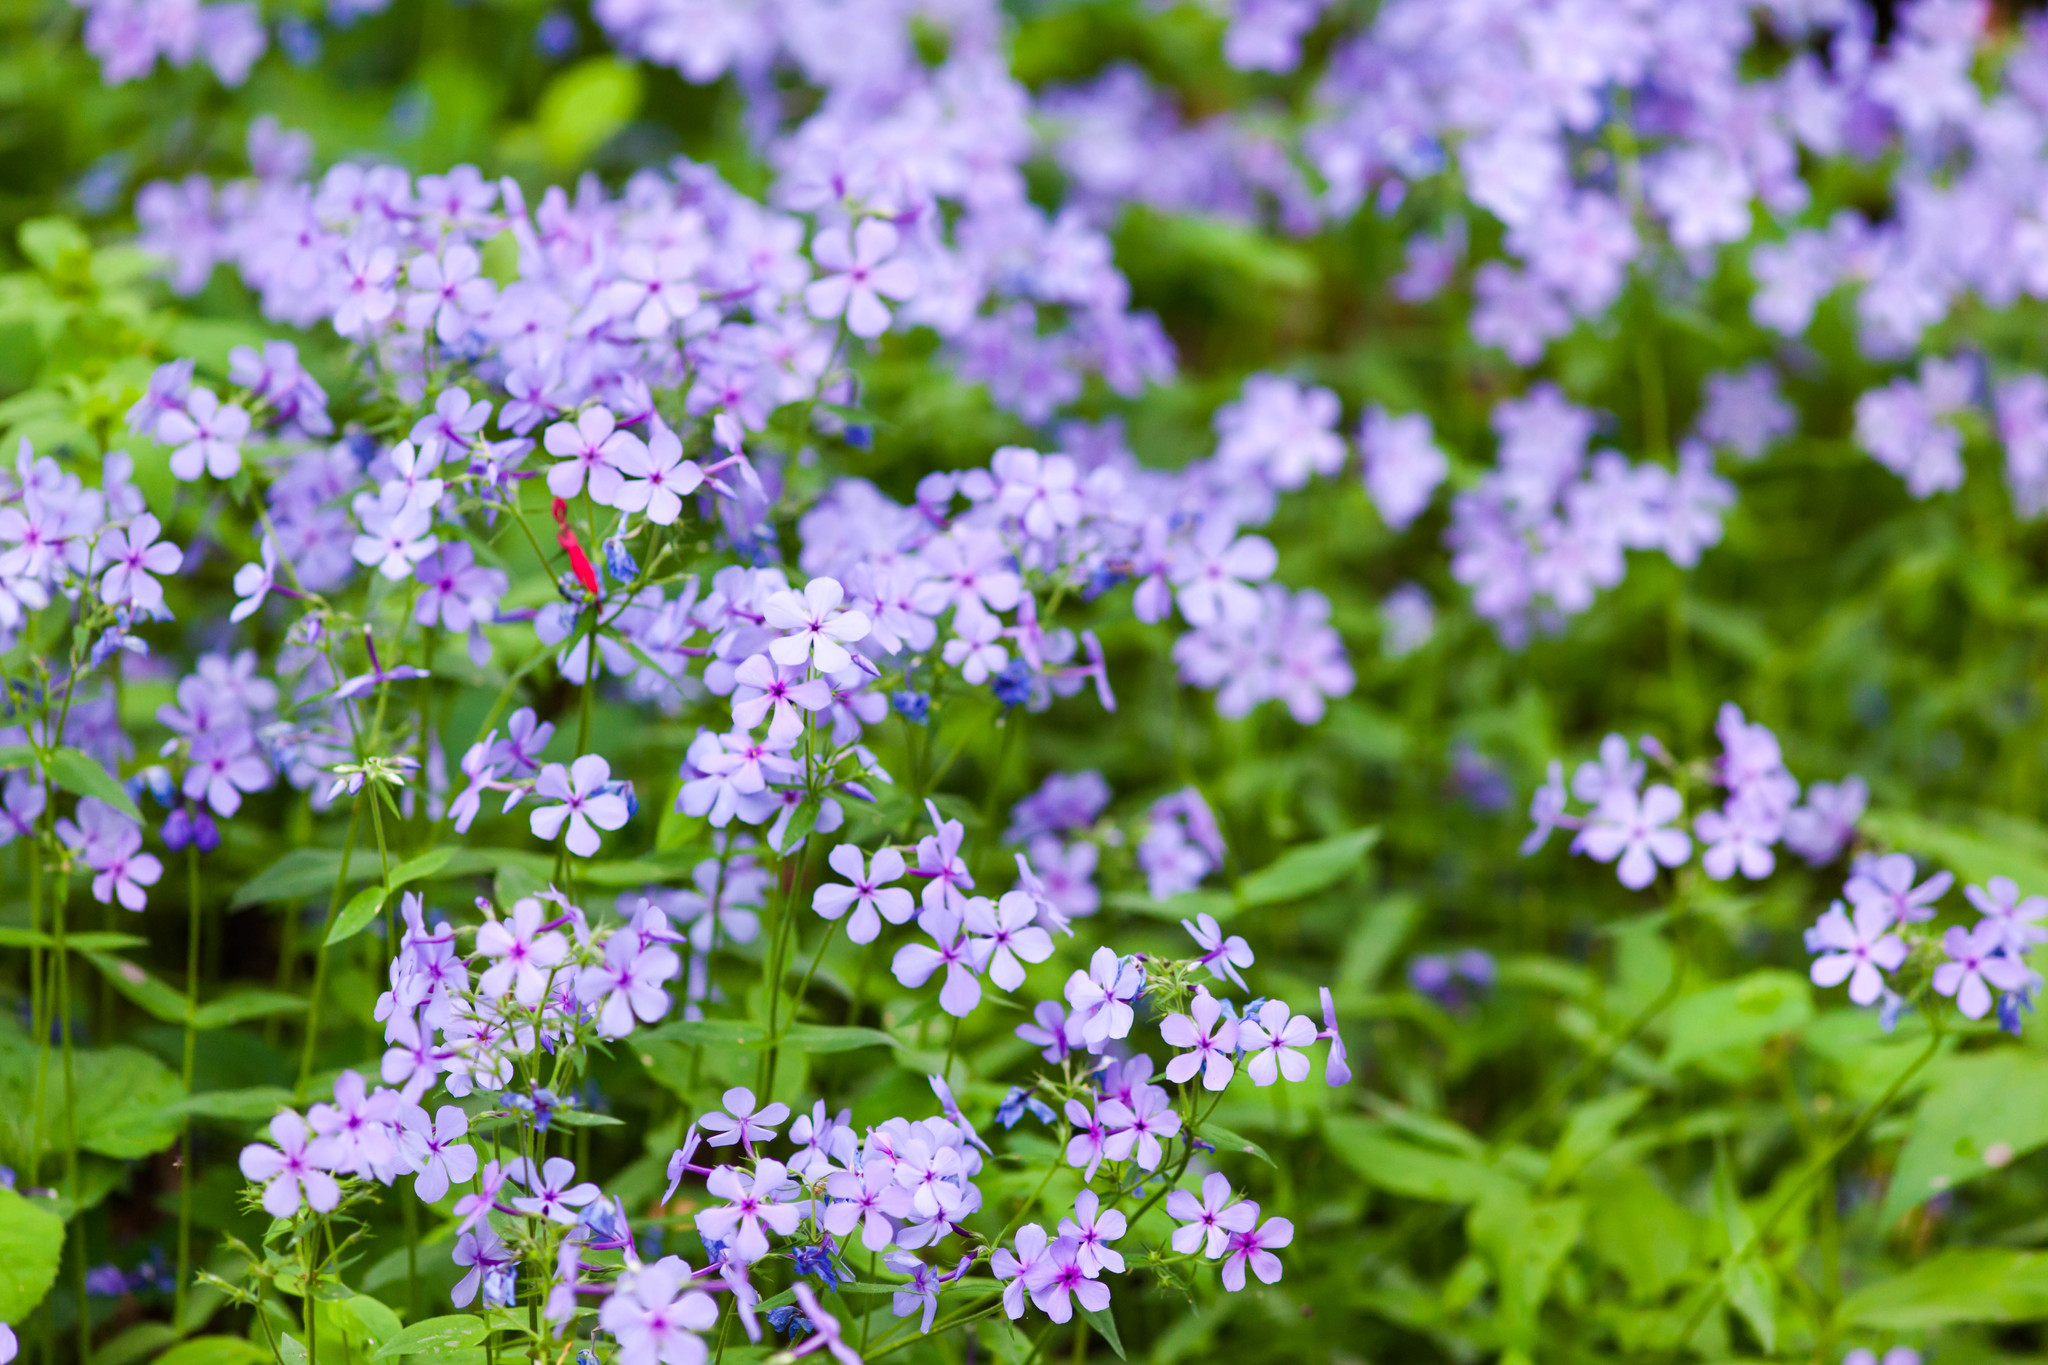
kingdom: Plantae
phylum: Tracheophyta
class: Magnoliopsida
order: Ericales
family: Polemoniaceae
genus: Phlox
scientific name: Phlox divaricata
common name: Blue phlox
